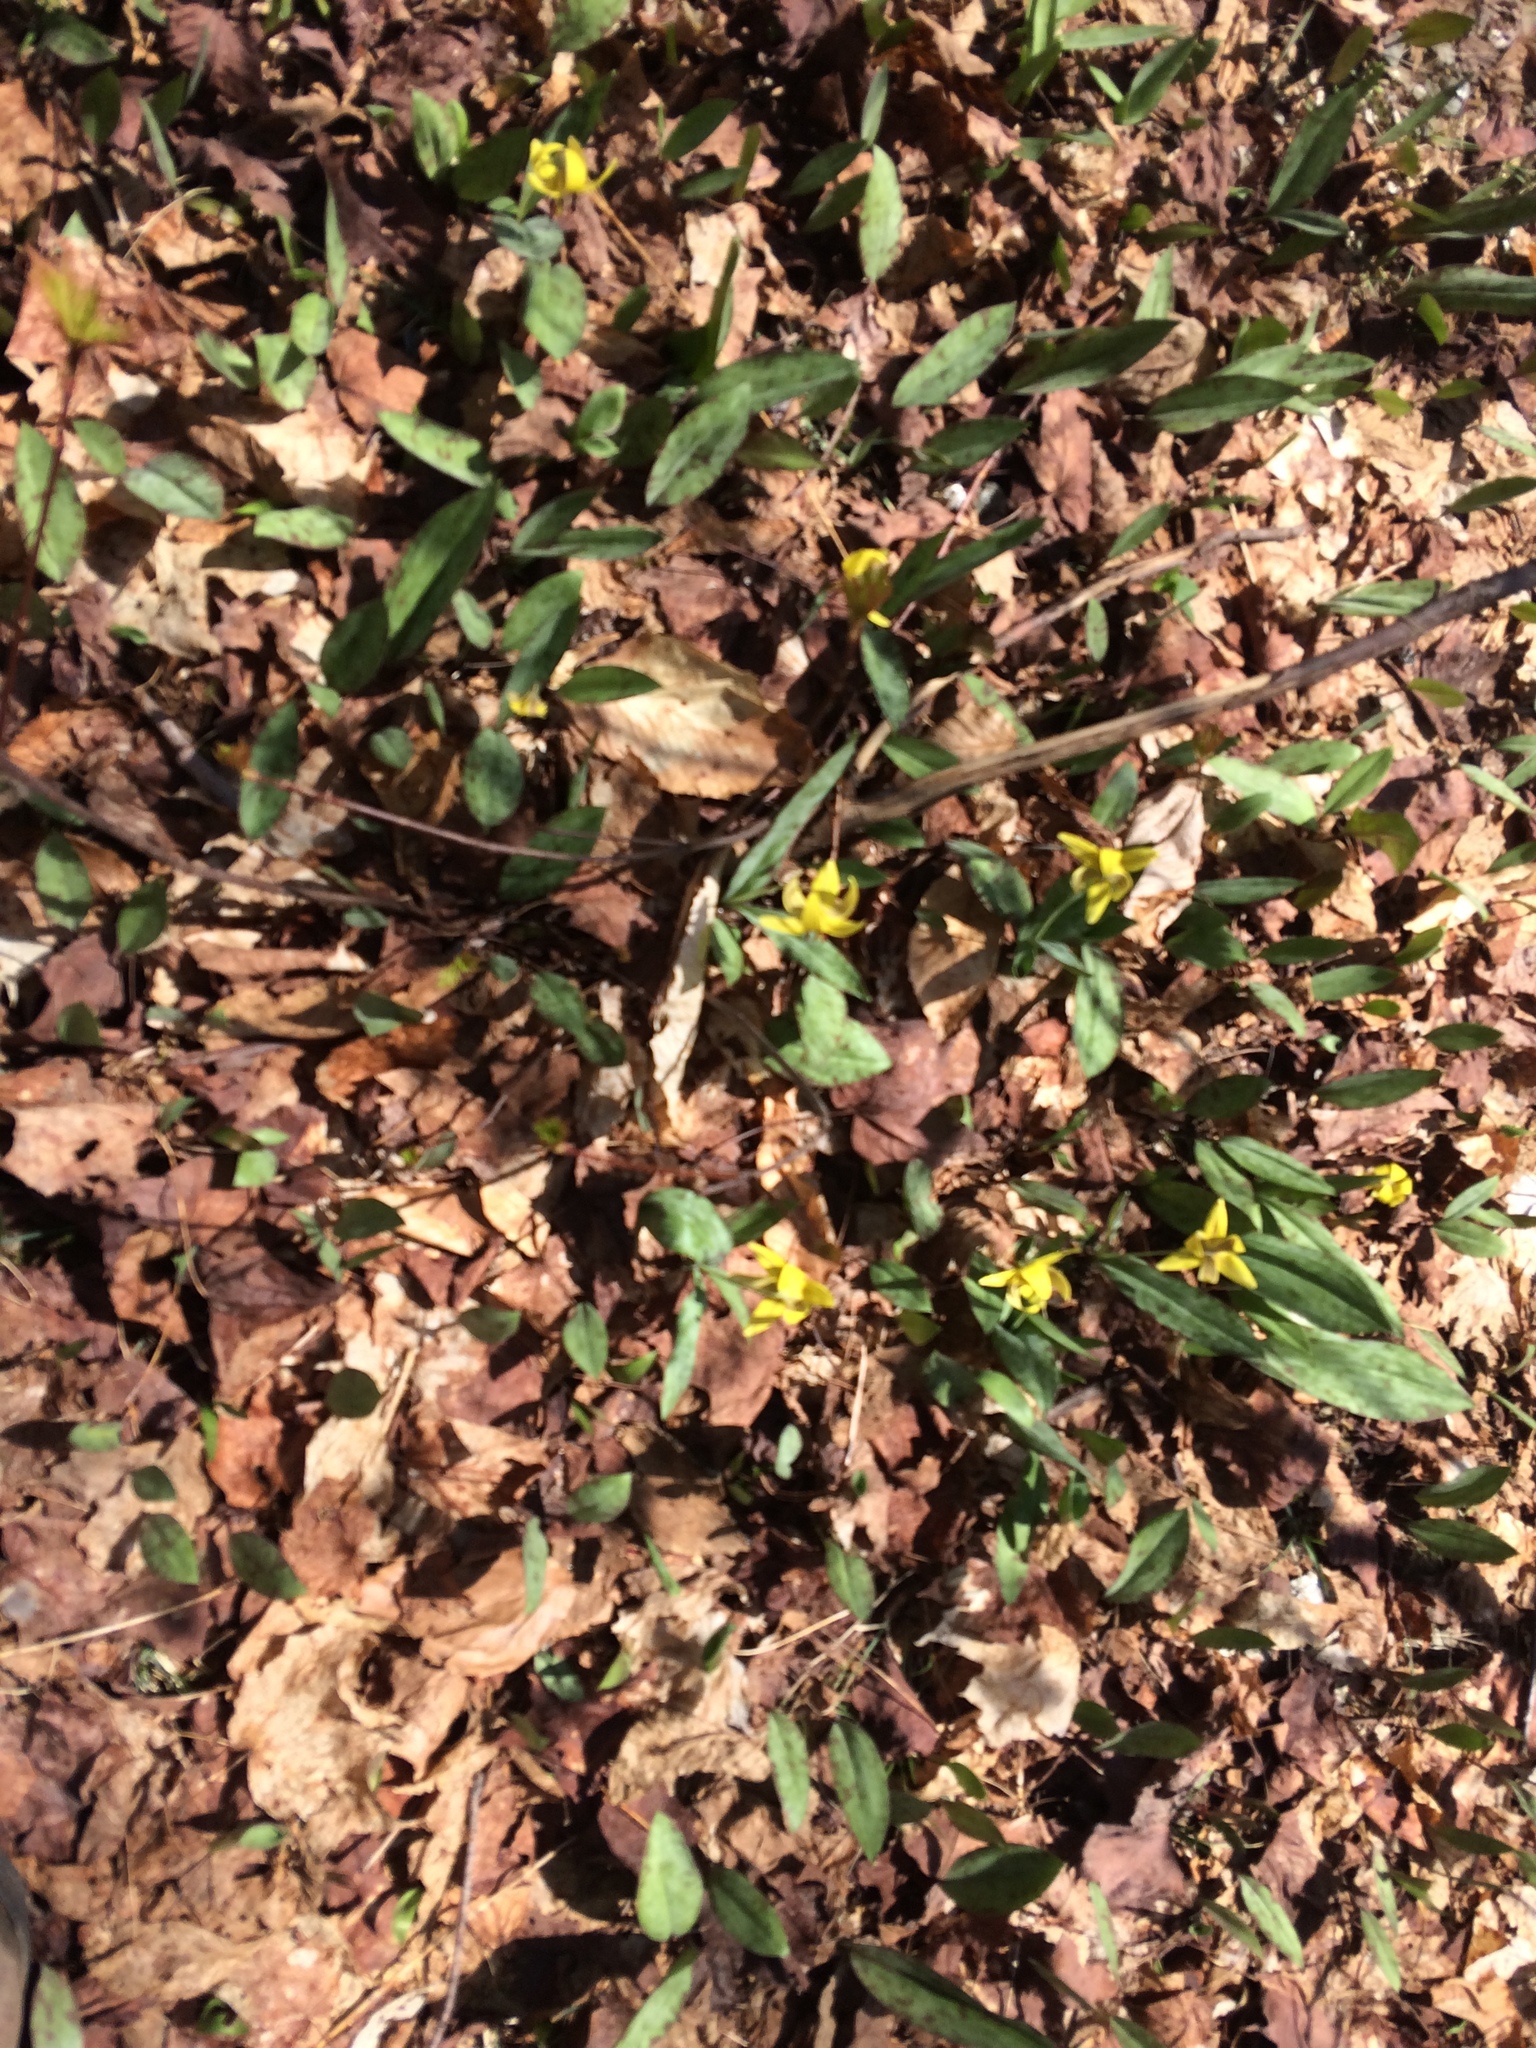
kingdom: Plantae
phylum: Tracheophyta
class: Liliopsida
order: Liliales
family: Liliaceae
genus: Erythronium
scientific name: Erythronium americanum
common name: Yellow adder's-tongue
